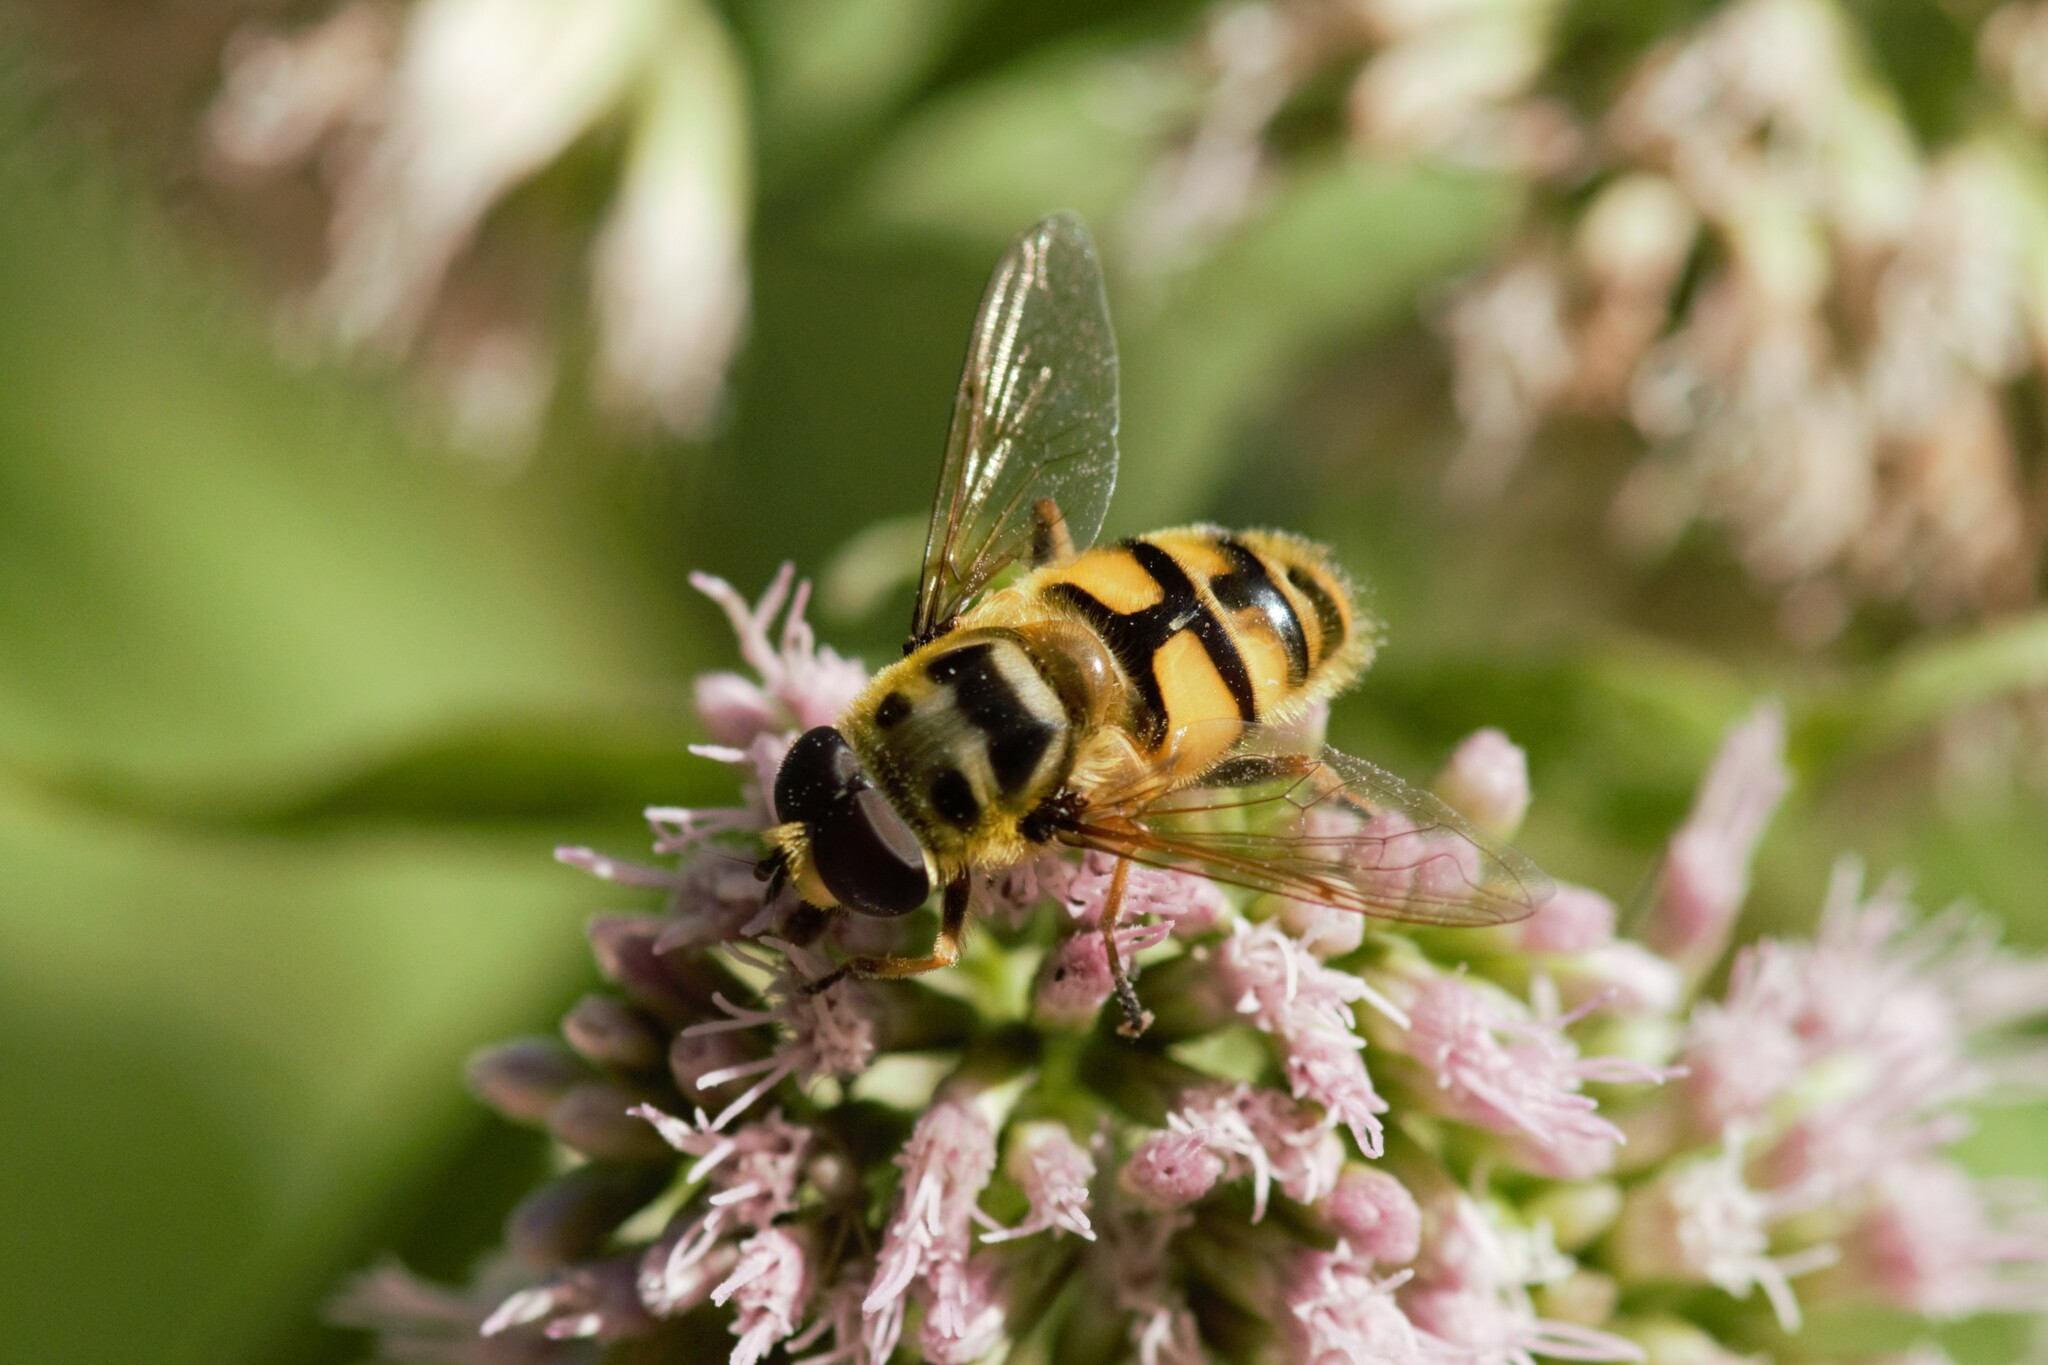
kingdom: Animalia
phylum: Arthropoda
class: Insecta
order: Diptera
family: Syrphidae
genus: Myathropa
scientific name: Myathropa florea
